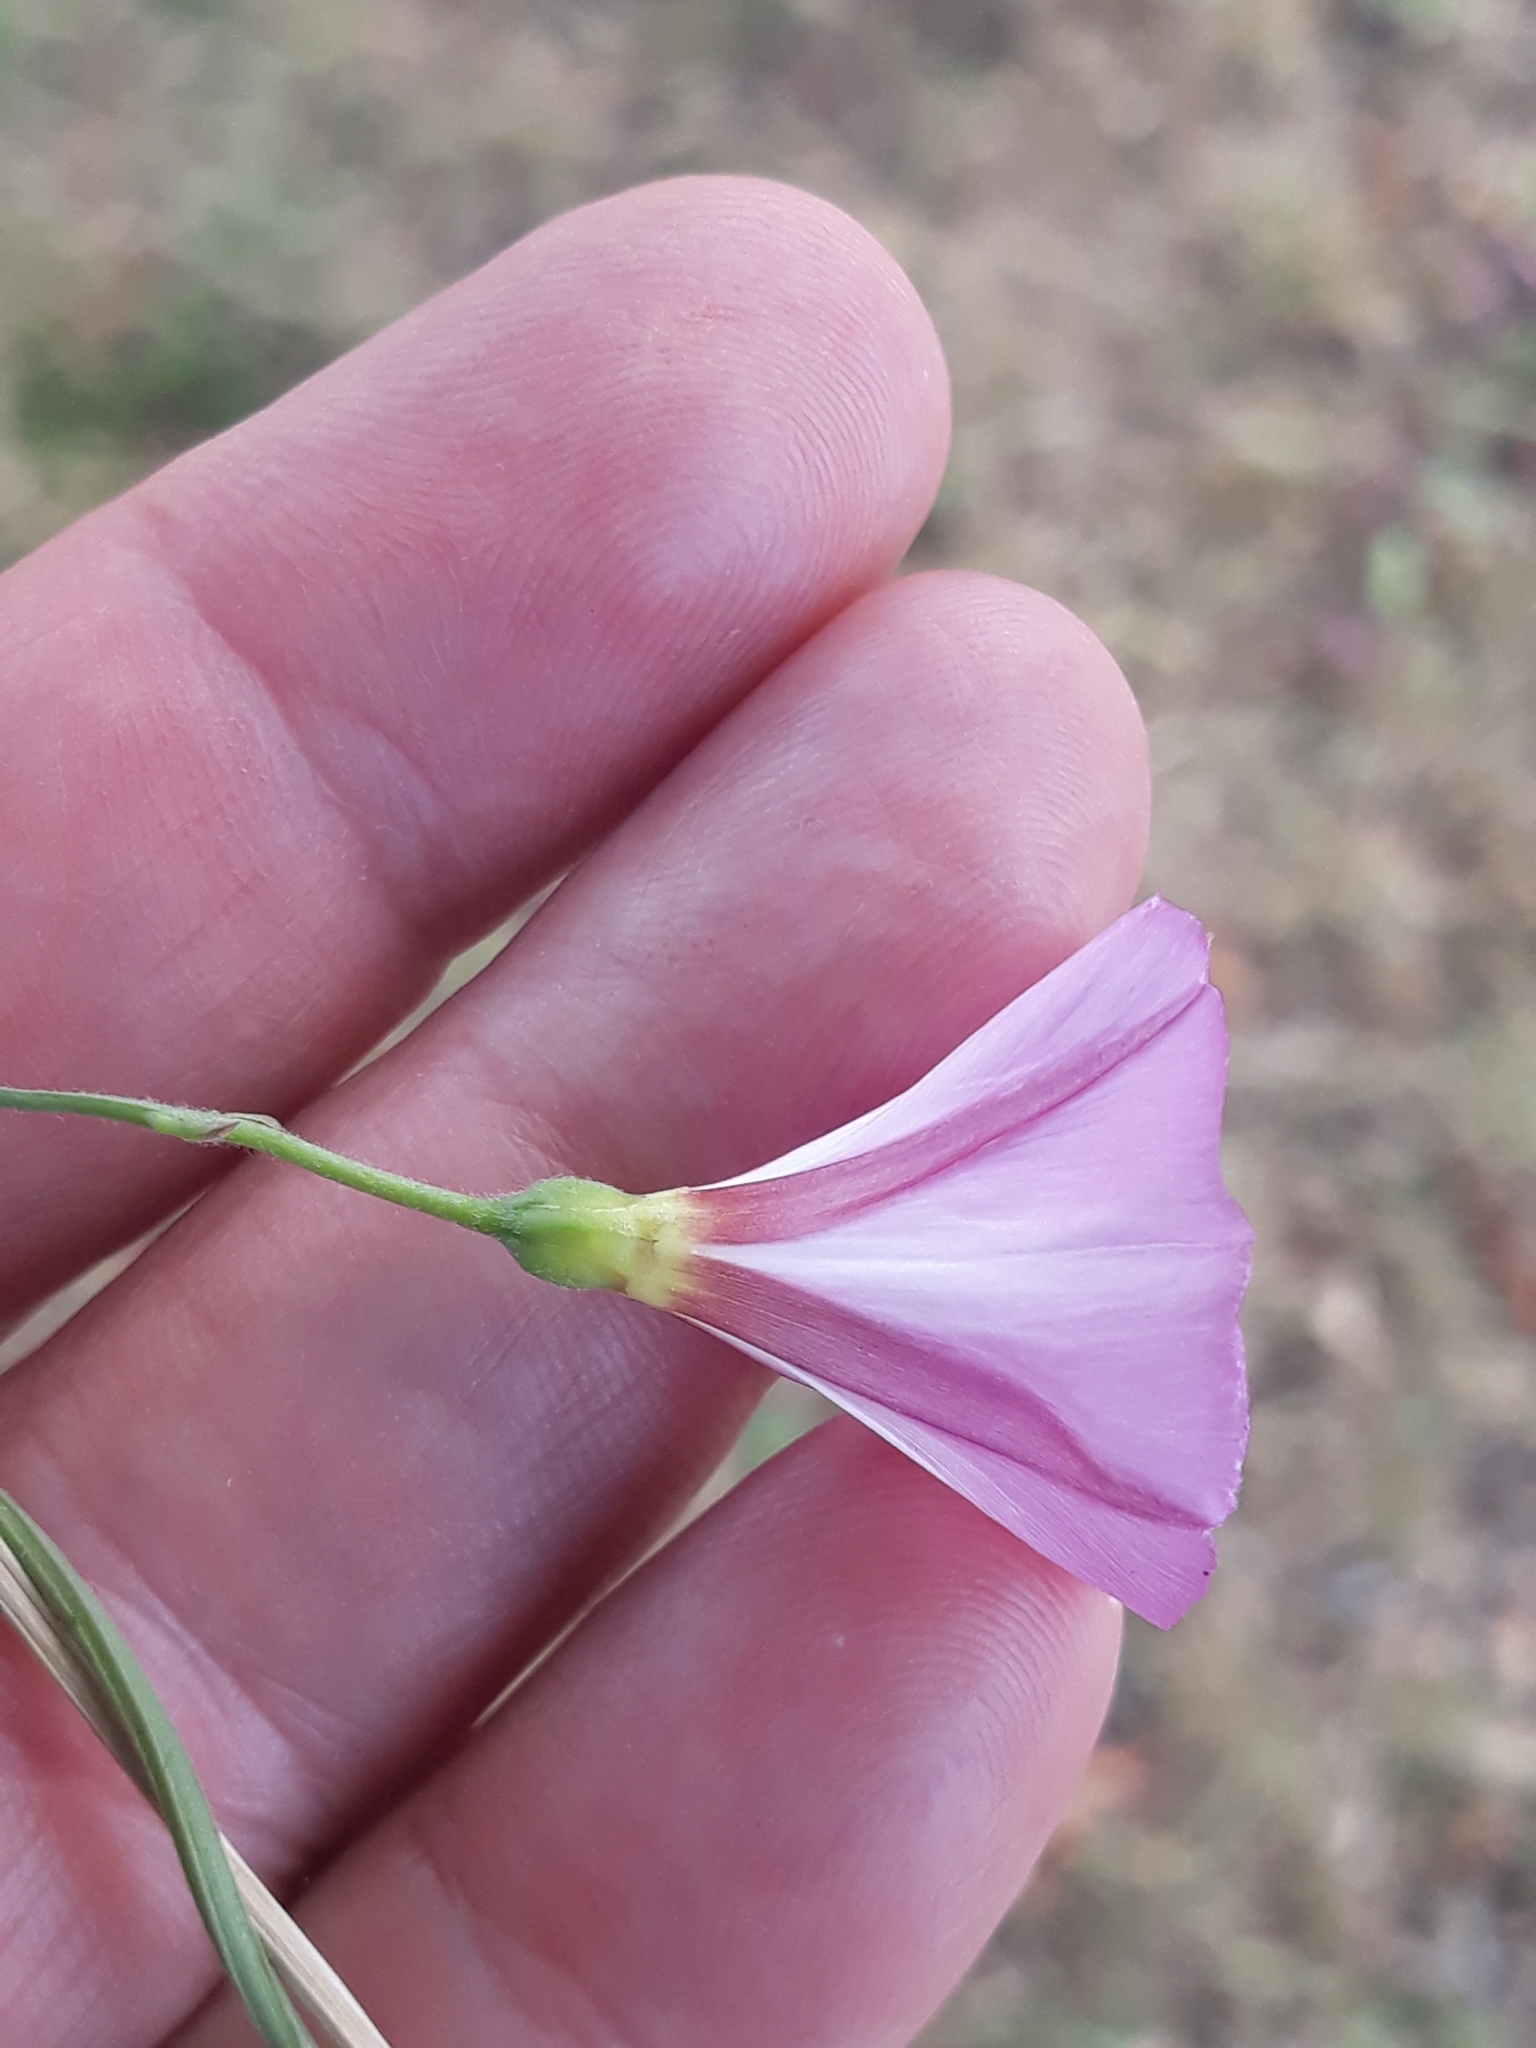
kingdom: Plantae
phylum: Tracheophyta
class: Magnoliopsida
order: Solanales
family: Convolvulaceae
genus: Convolvulus
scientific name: Convolvulus arvensis
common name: Field bindweed
